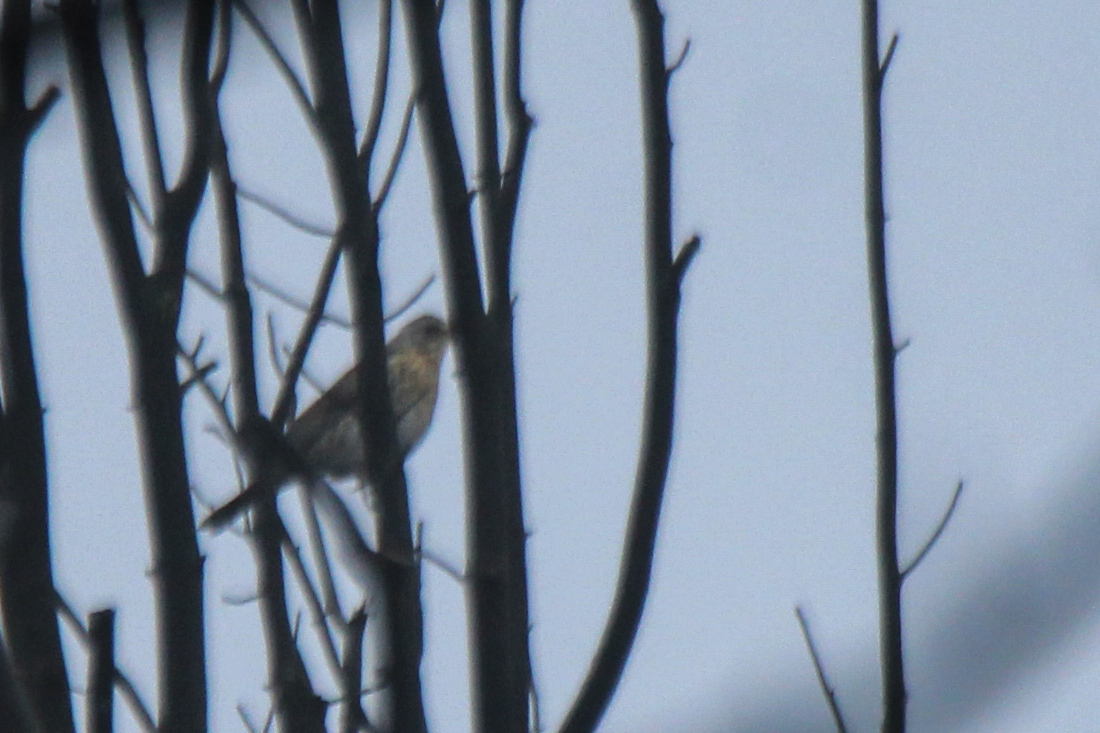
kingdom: Animalia
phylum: Chordata
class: Aves
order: Passeriformes
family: Turdidae
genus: Turdus
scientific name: Turdus pilaris
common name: Fieldfare
